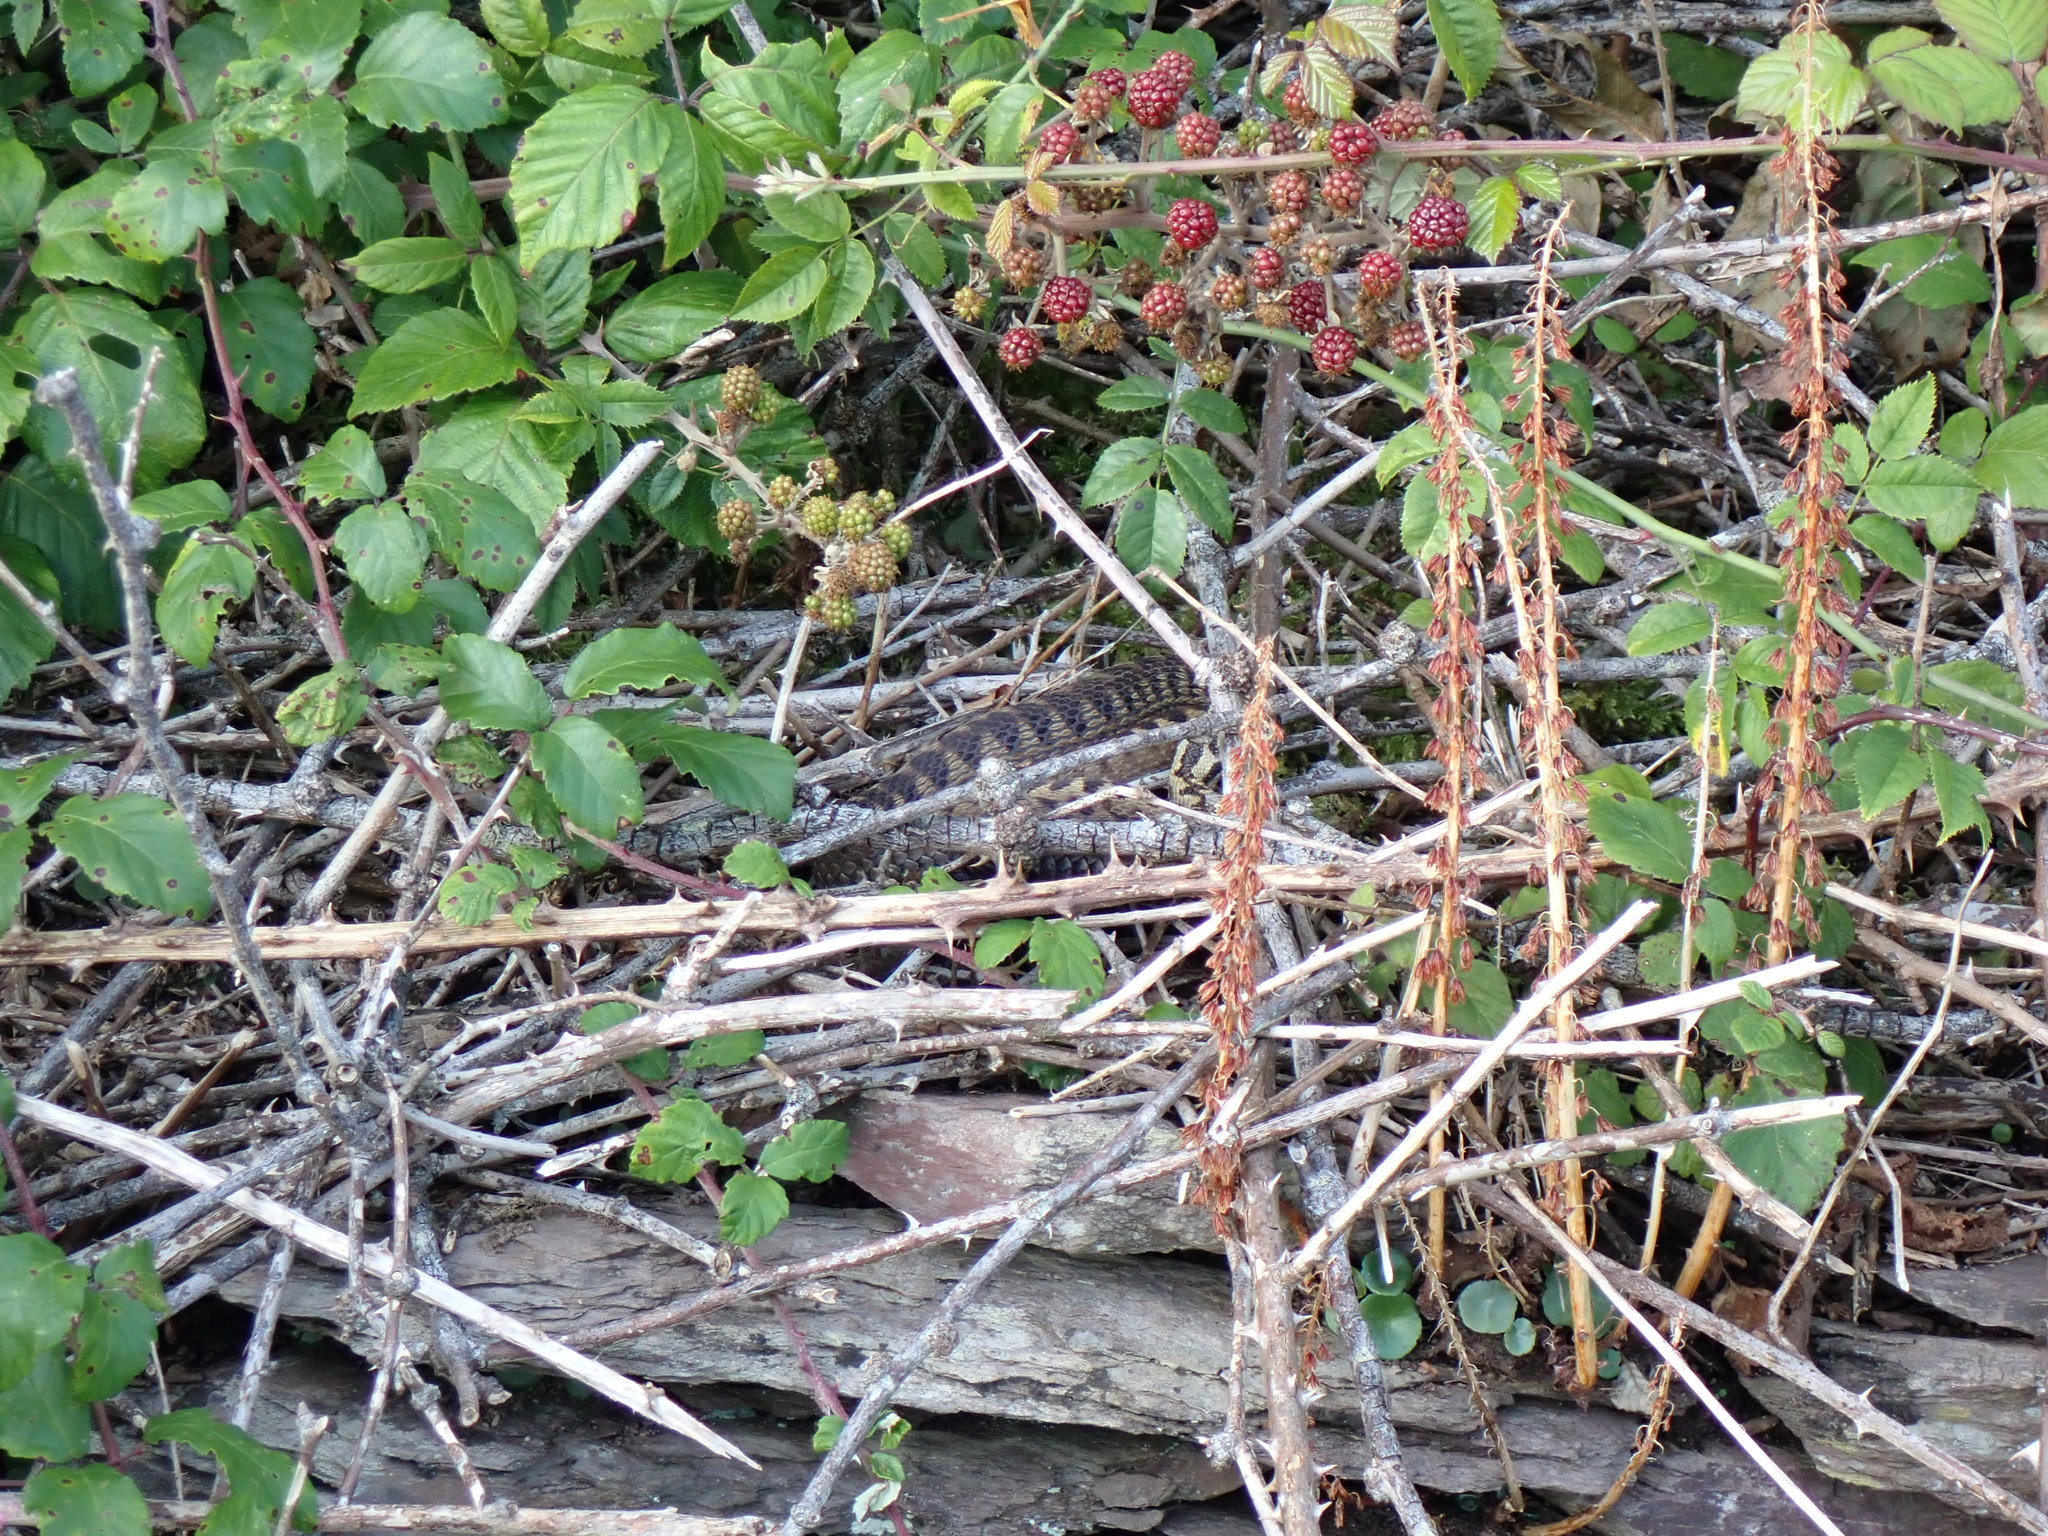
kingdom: Animalia
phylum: Chordata
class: Squamata
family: Viperidae
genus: Vipera
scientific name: Vipera berus
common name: Adder
